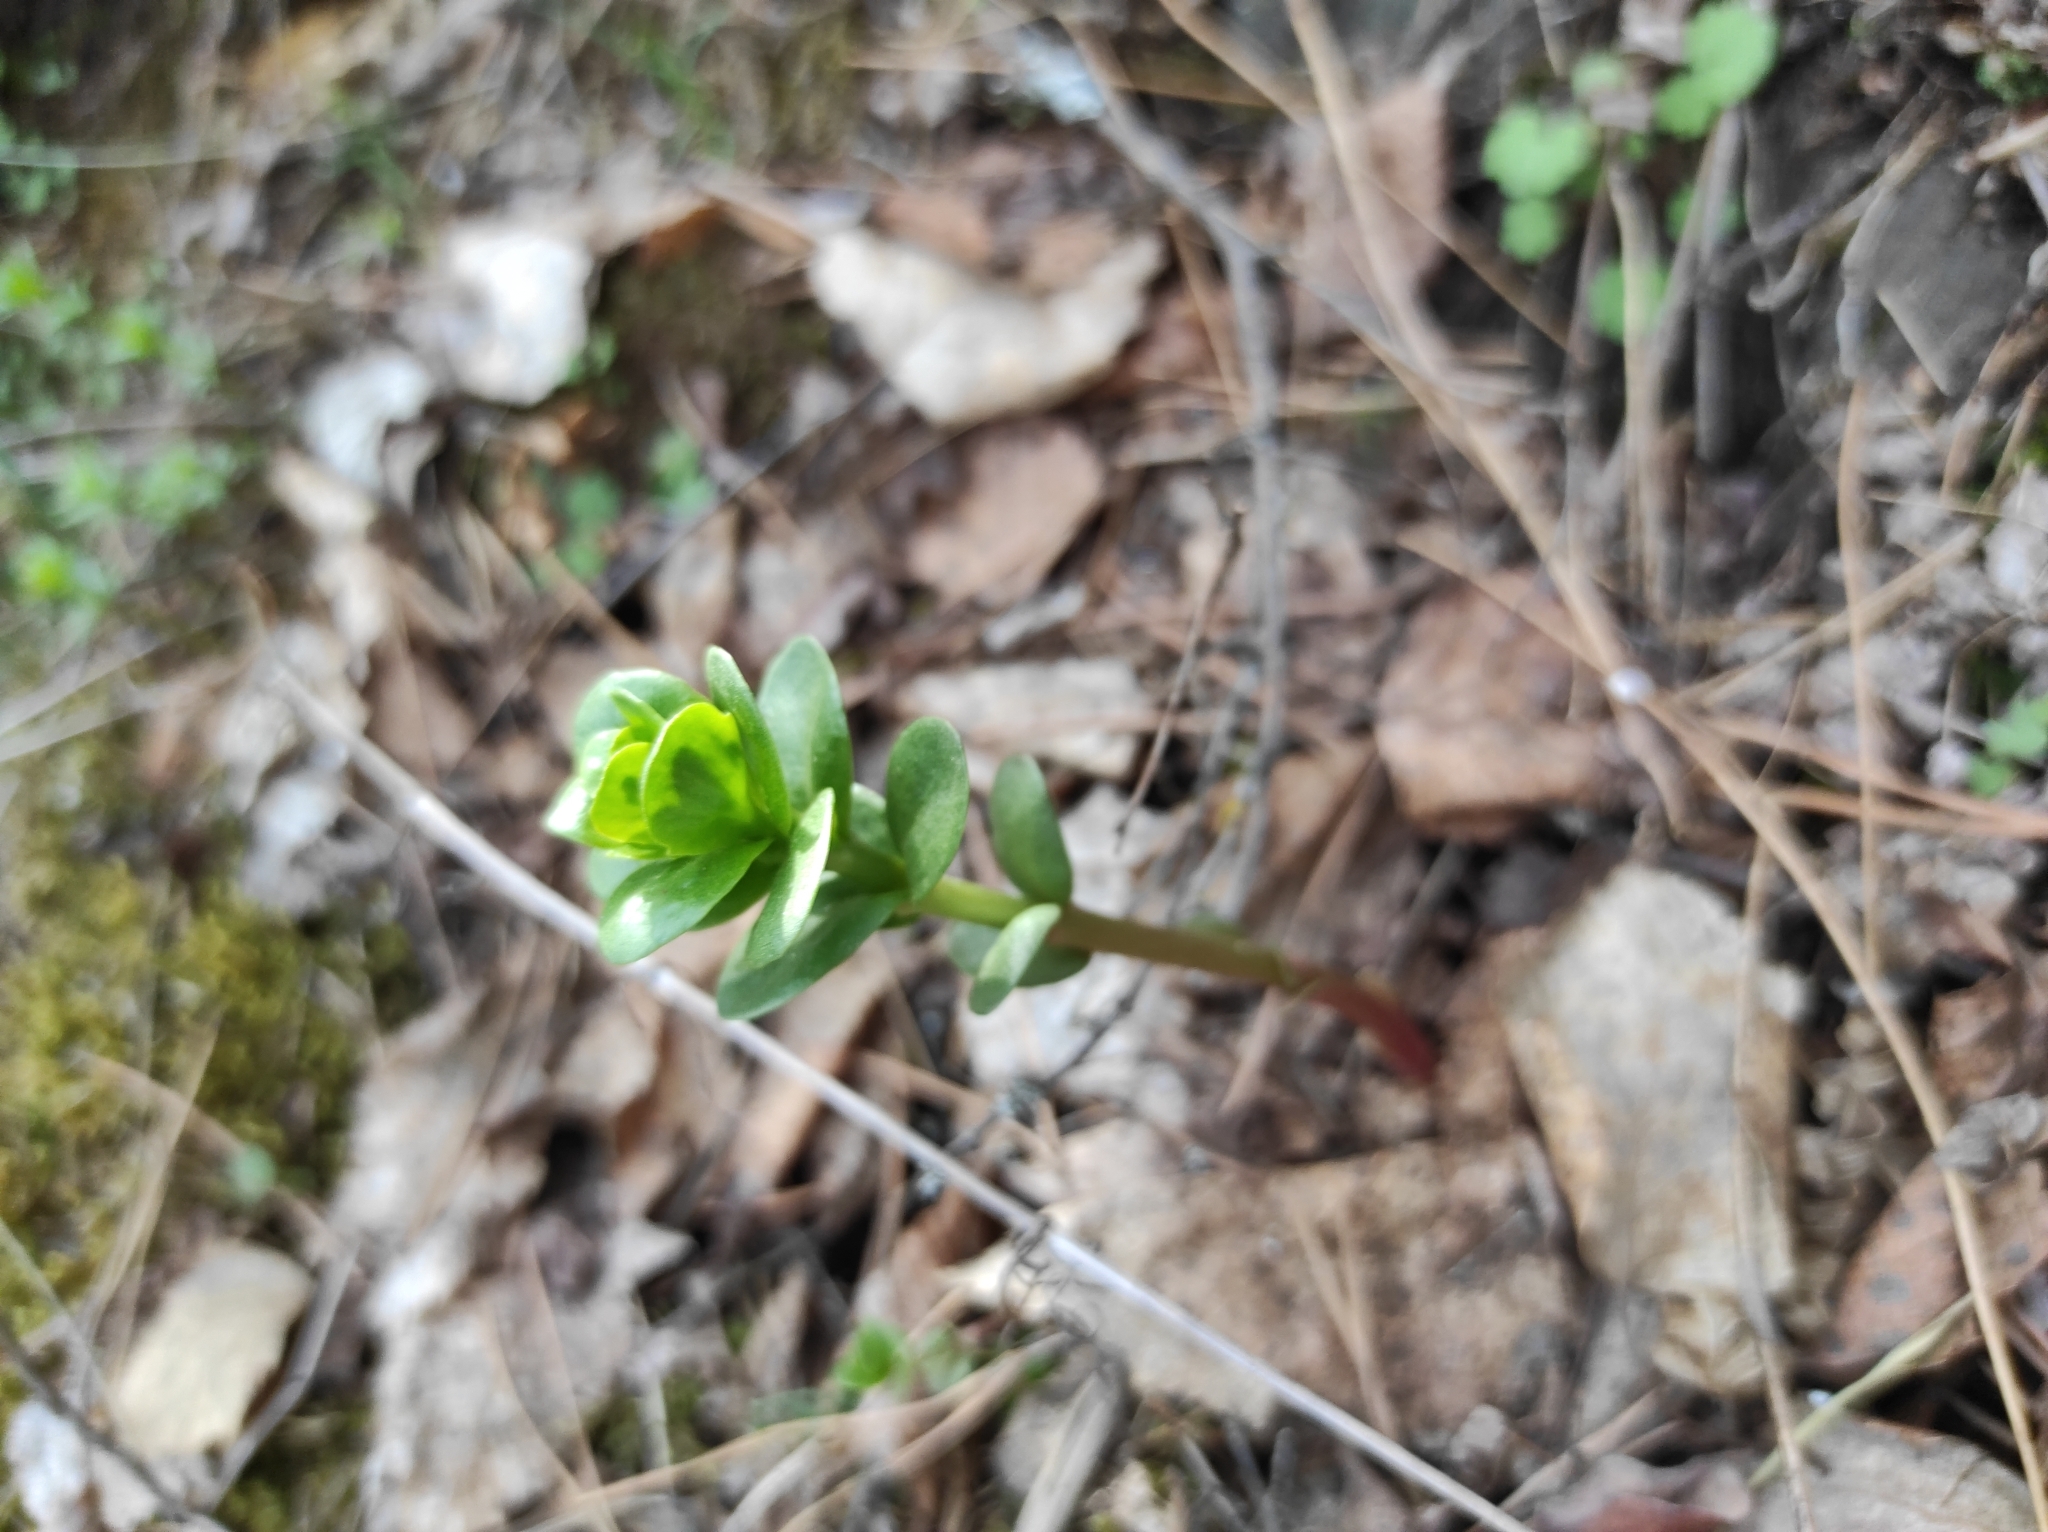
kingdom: Plantae
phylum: Tracheophyta
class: Magnoliopsida
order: Saxifragales
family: Crassulaceae
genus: Hylotelephium
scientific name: Hylotelephium telephium
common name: Live-forever
